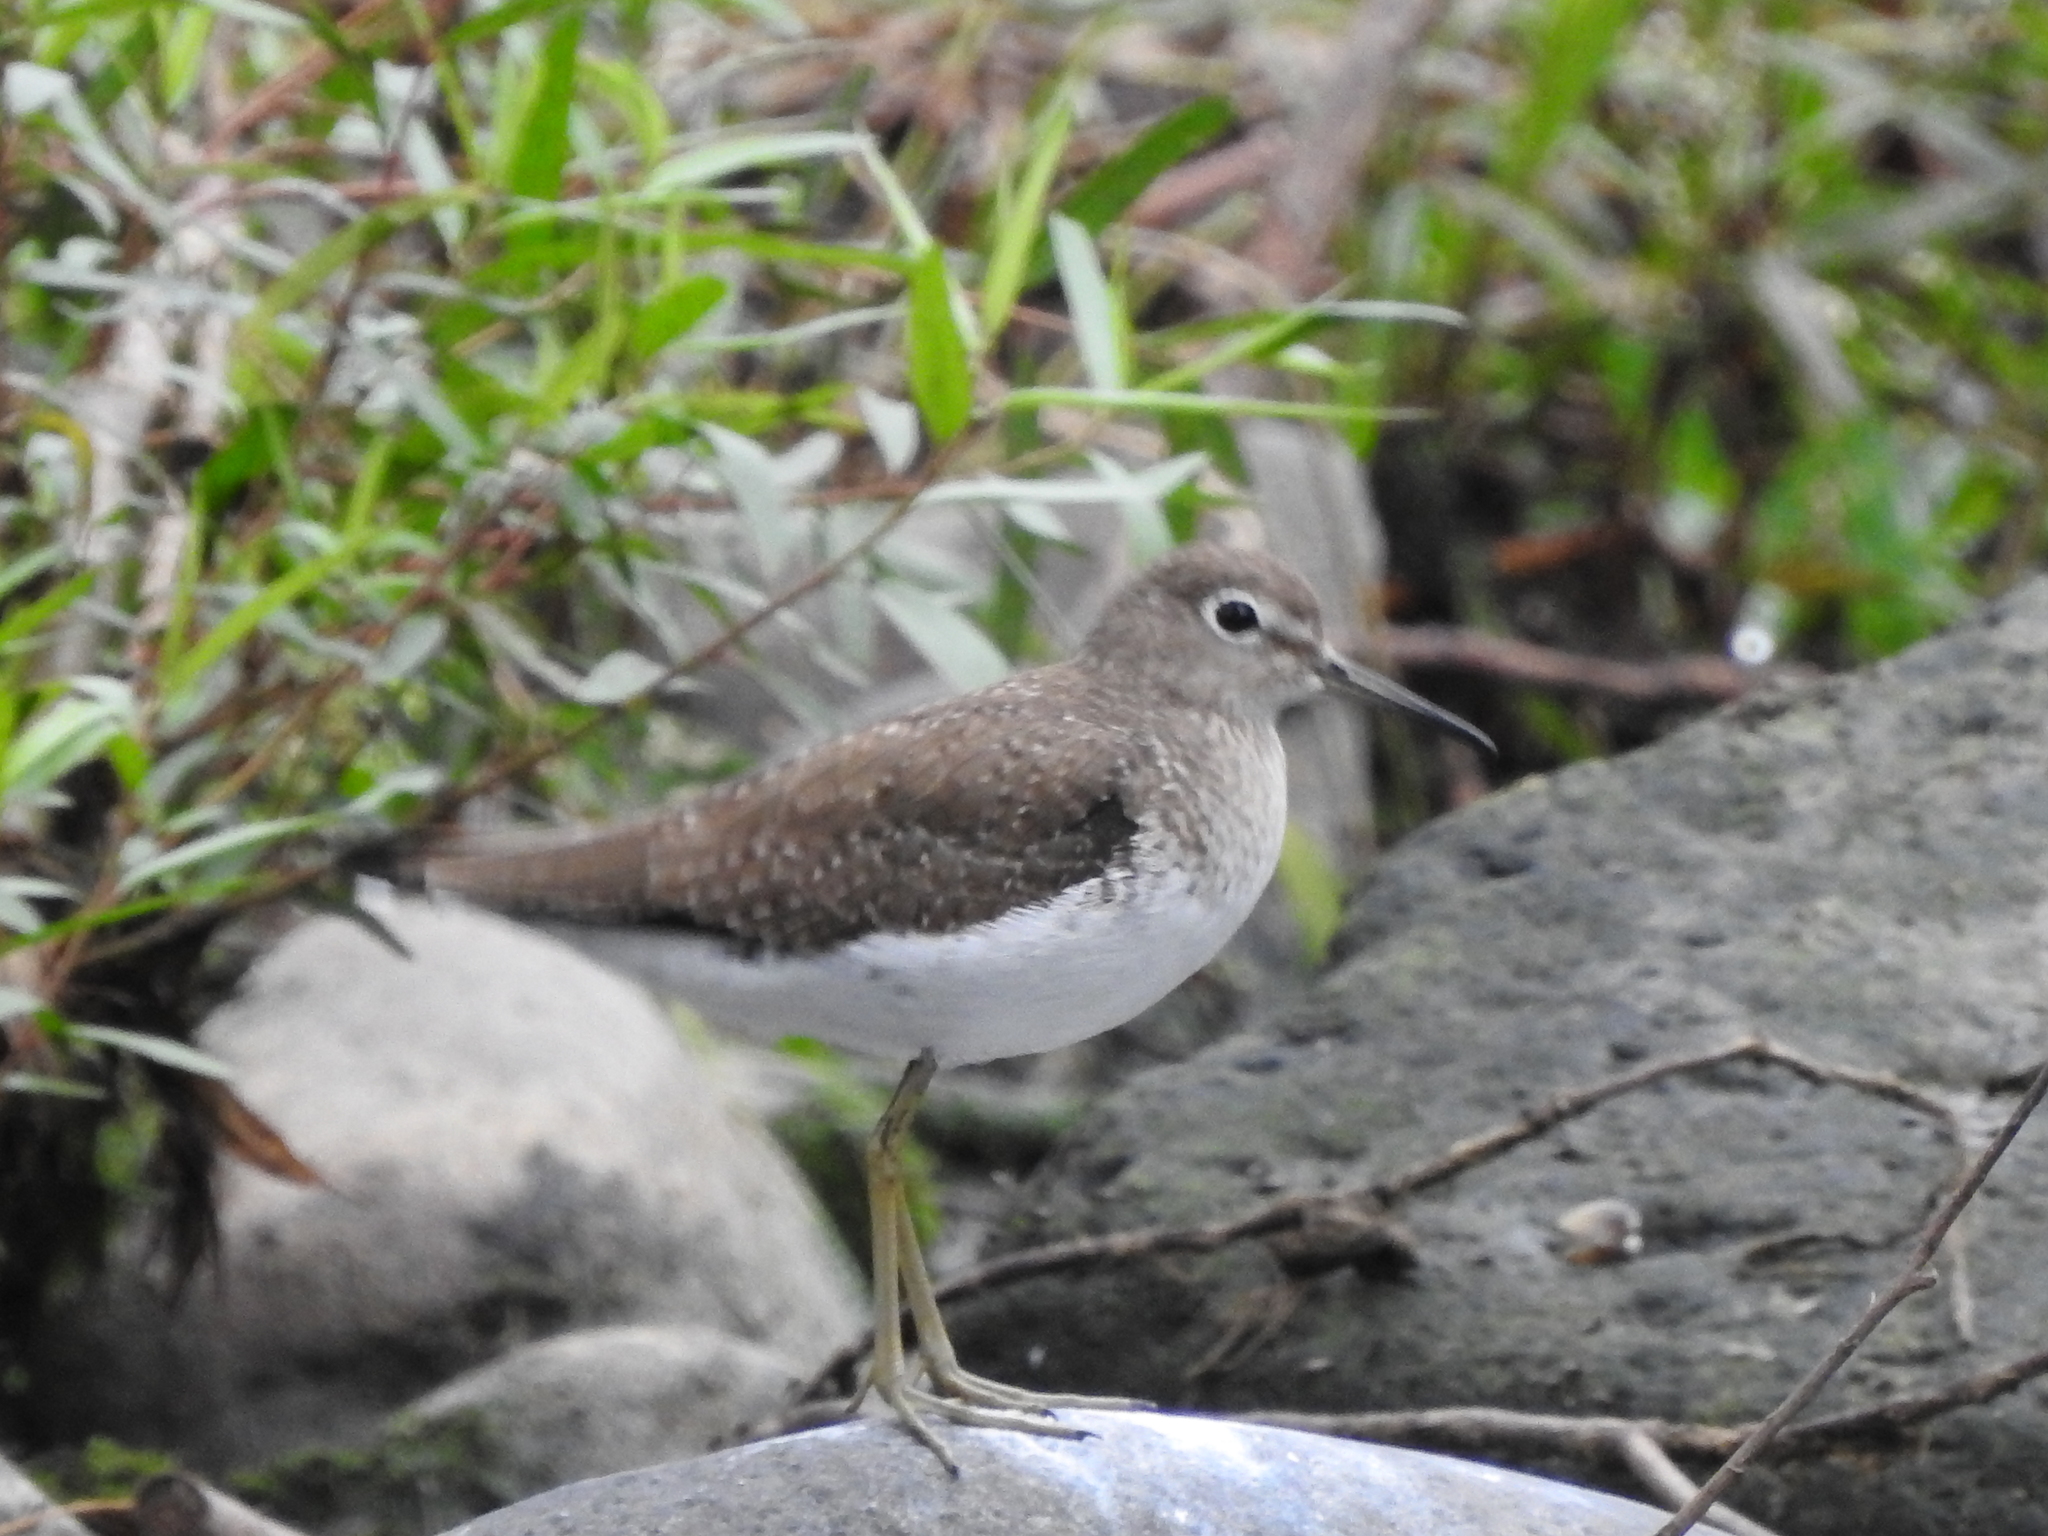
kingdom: Animalia
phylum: Chordata
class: Aves
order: Charadriiformes
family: Scolopacidae
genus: Tringa
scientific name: Tringa solitaria
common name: Solitary sandpiper
